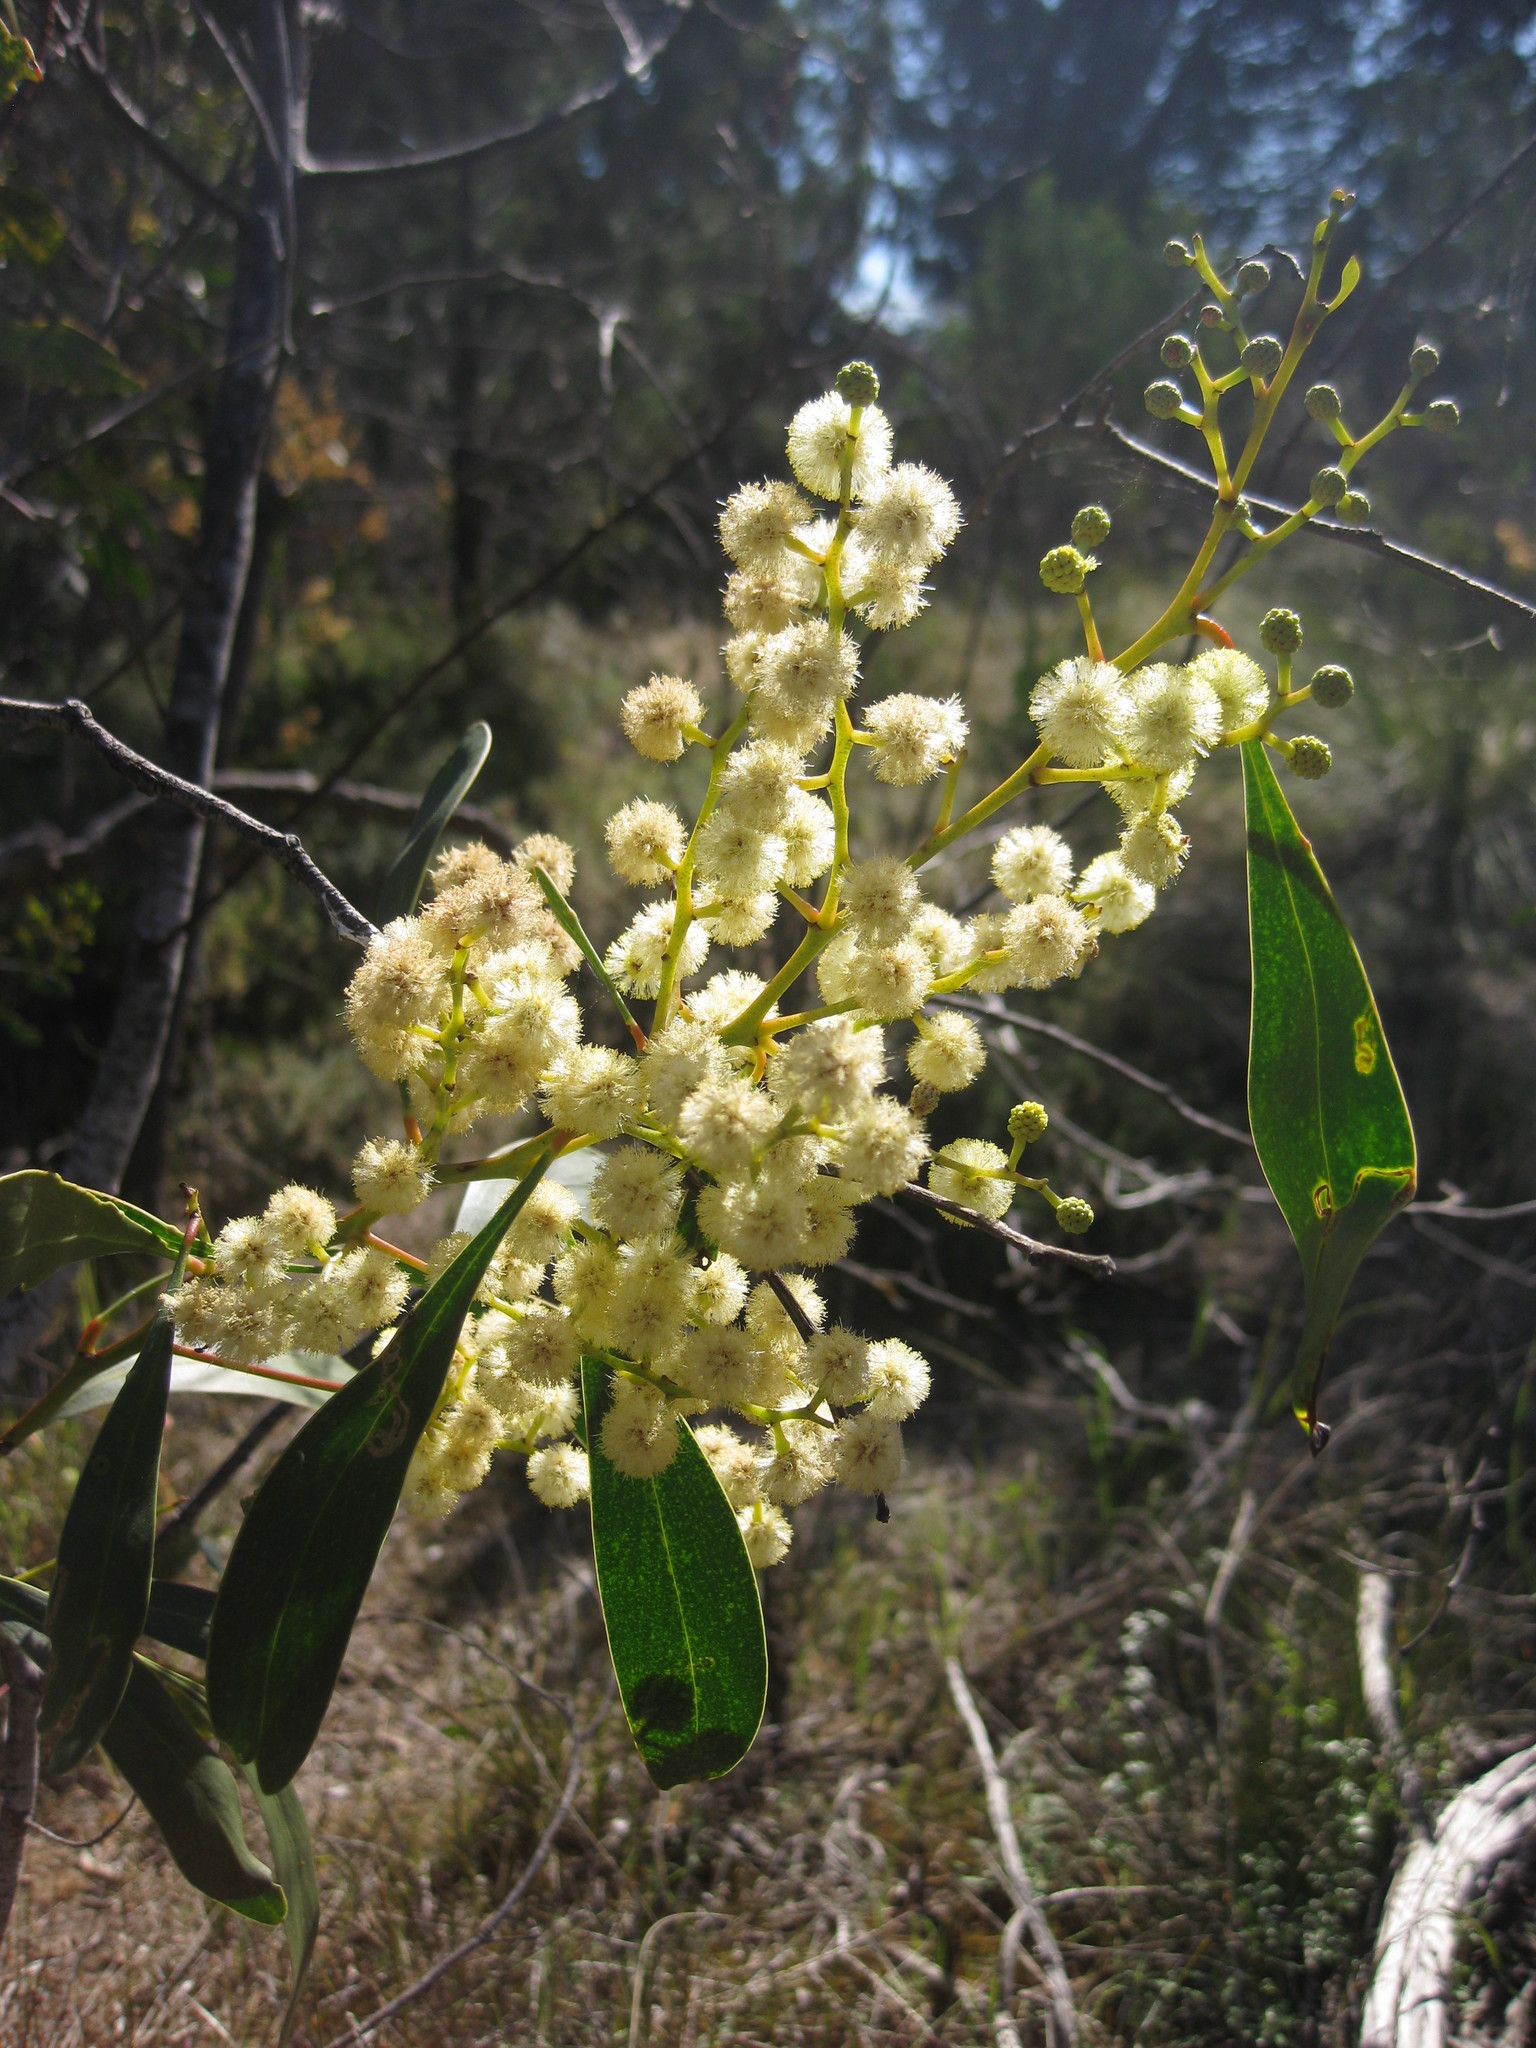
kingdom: Plantae
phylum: Tracheophyta
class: Magnoliopsida
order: Fabales
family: Fabaceae
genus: Acacia
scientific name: Acacia pycnantha
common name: Golden wattle
